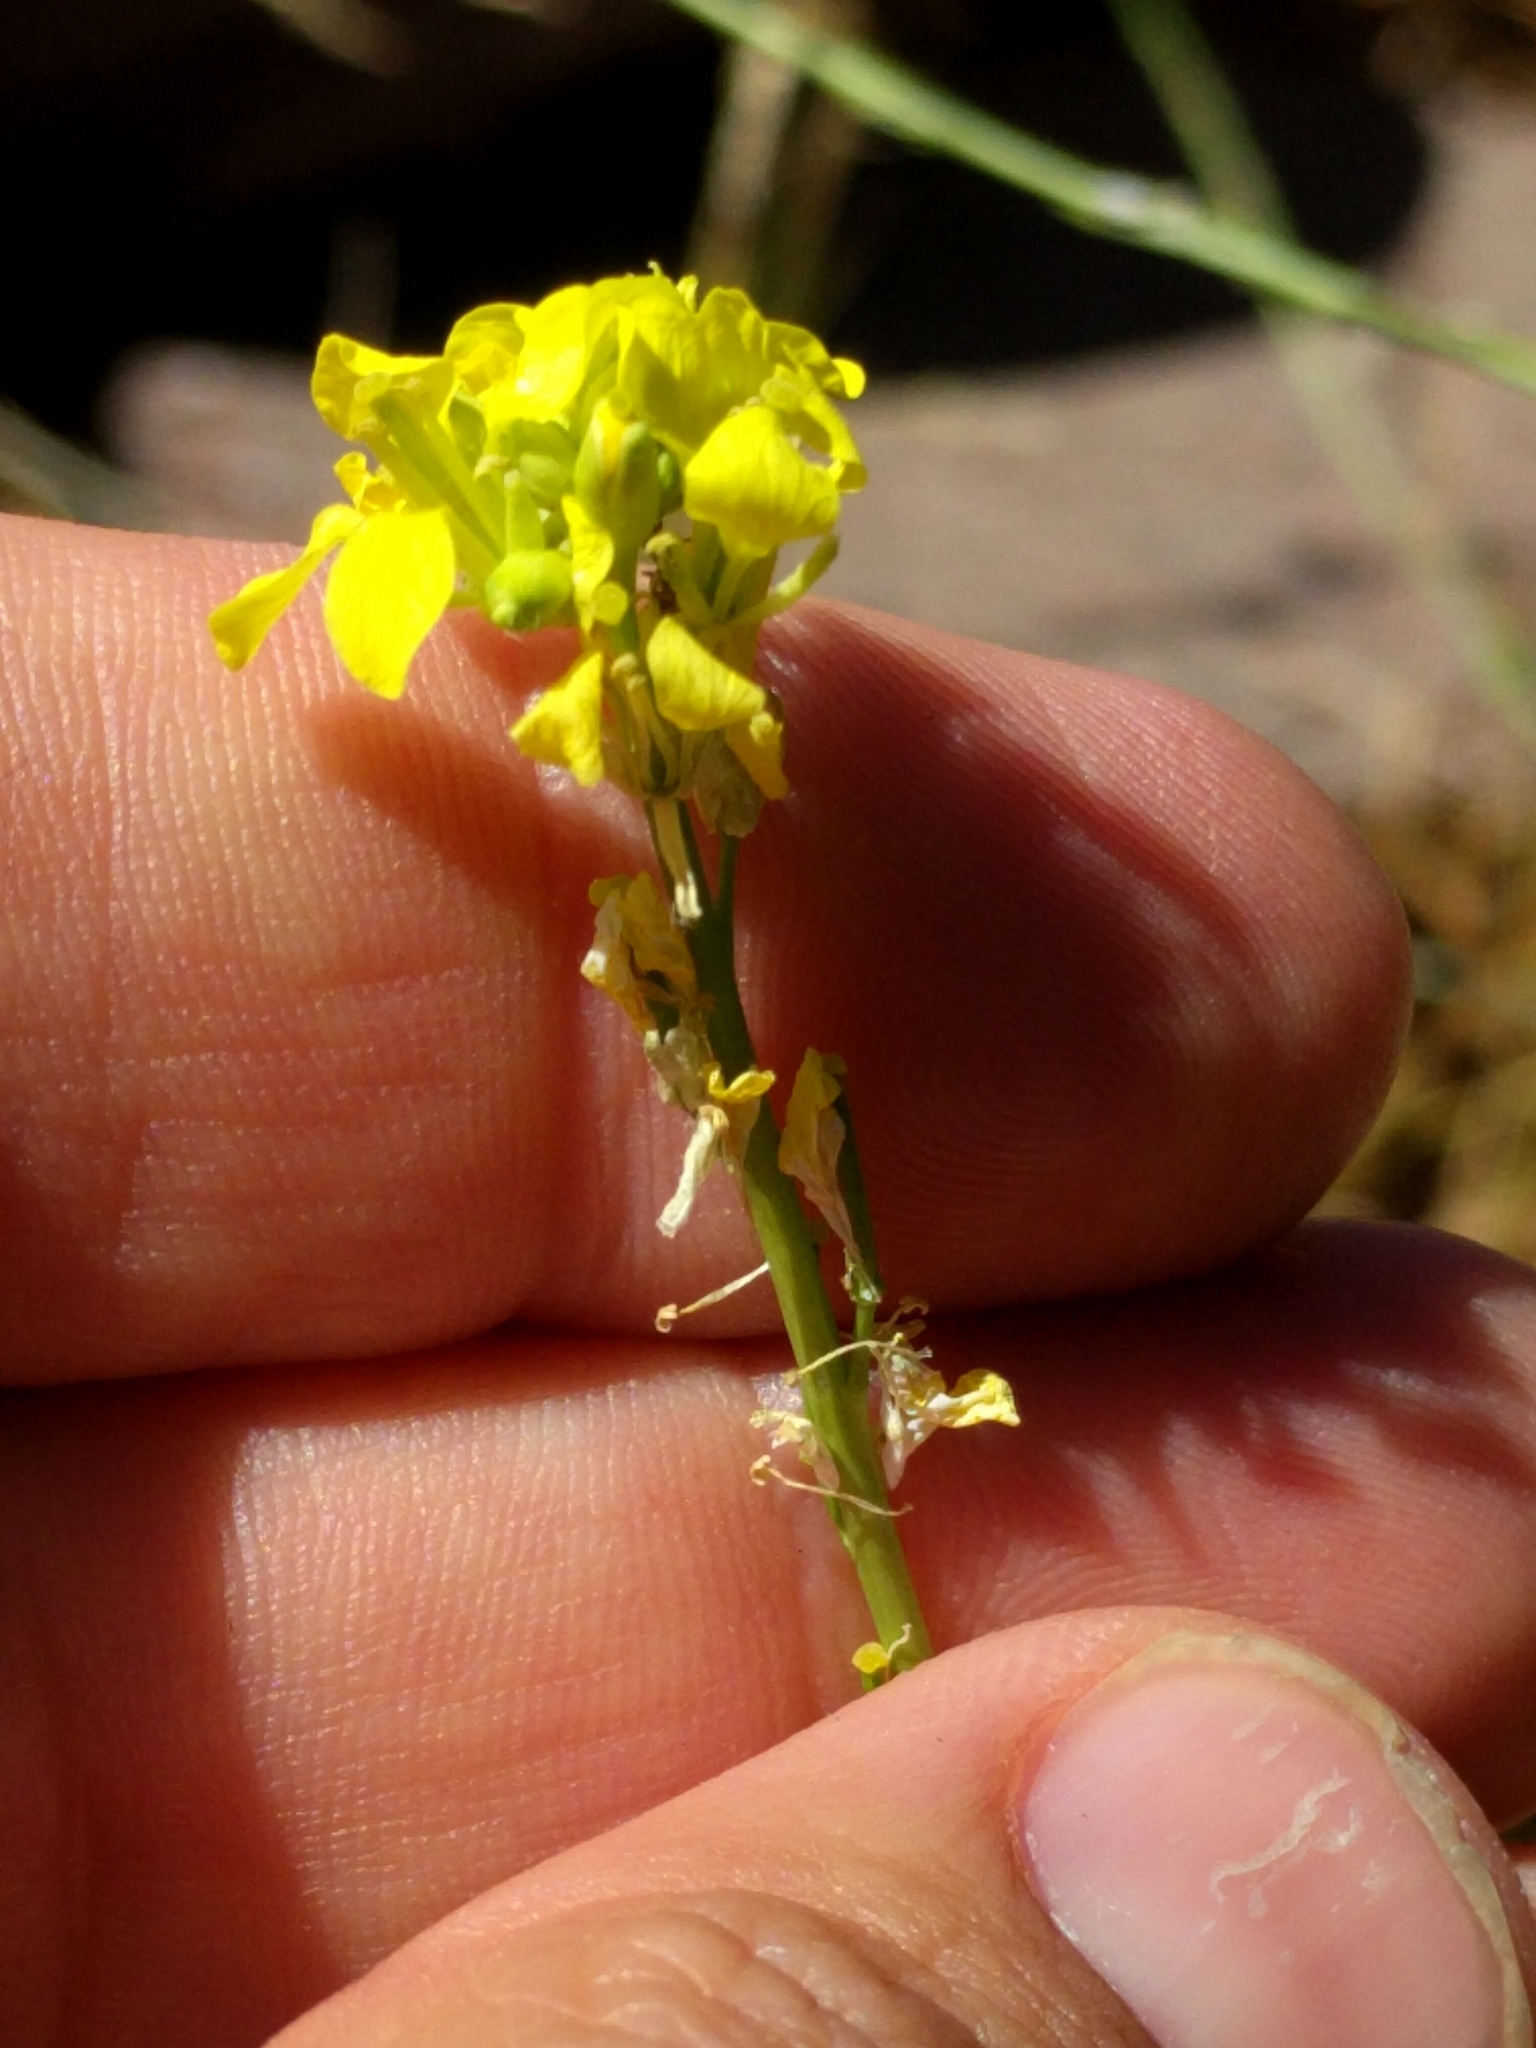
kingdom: Plantae
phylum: Tracheophyta
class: Magnoliopsida
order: Brassicales
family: Brassicaceae
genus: Hirschfeldia
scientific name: Hirschfeldia incana
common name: Hoary mustard
